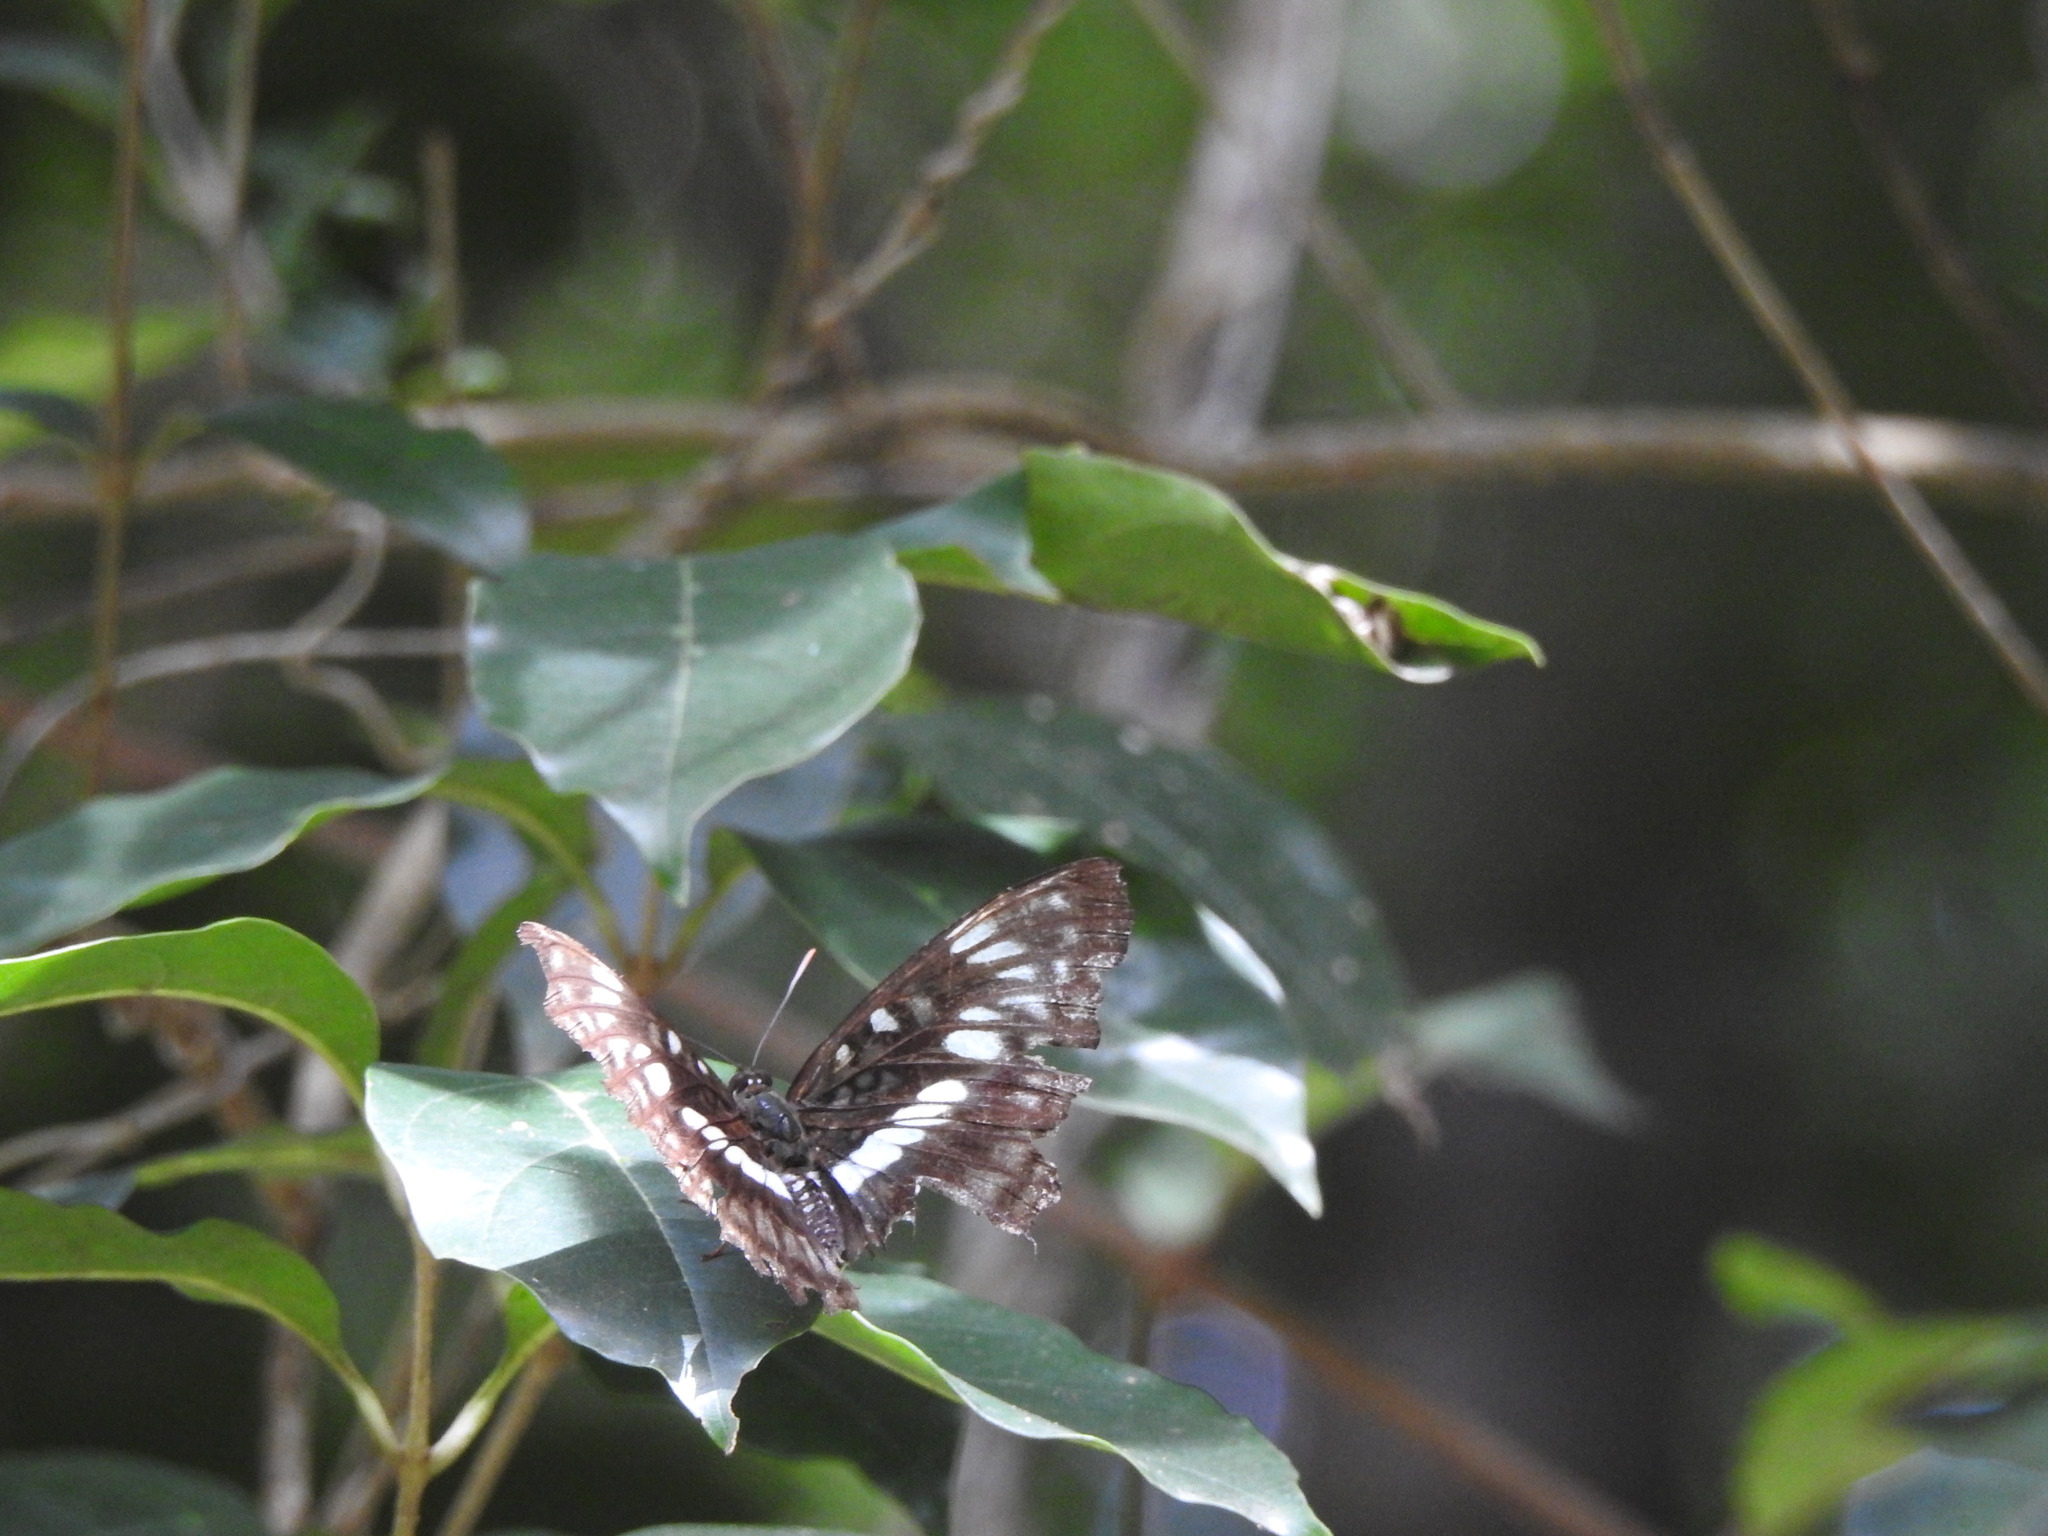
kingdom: Animalia
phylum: Arthropoda
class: Insecta
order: Lepidoptera
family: Nymphalidae
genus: Parathyma
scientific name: Parathyma ranga
